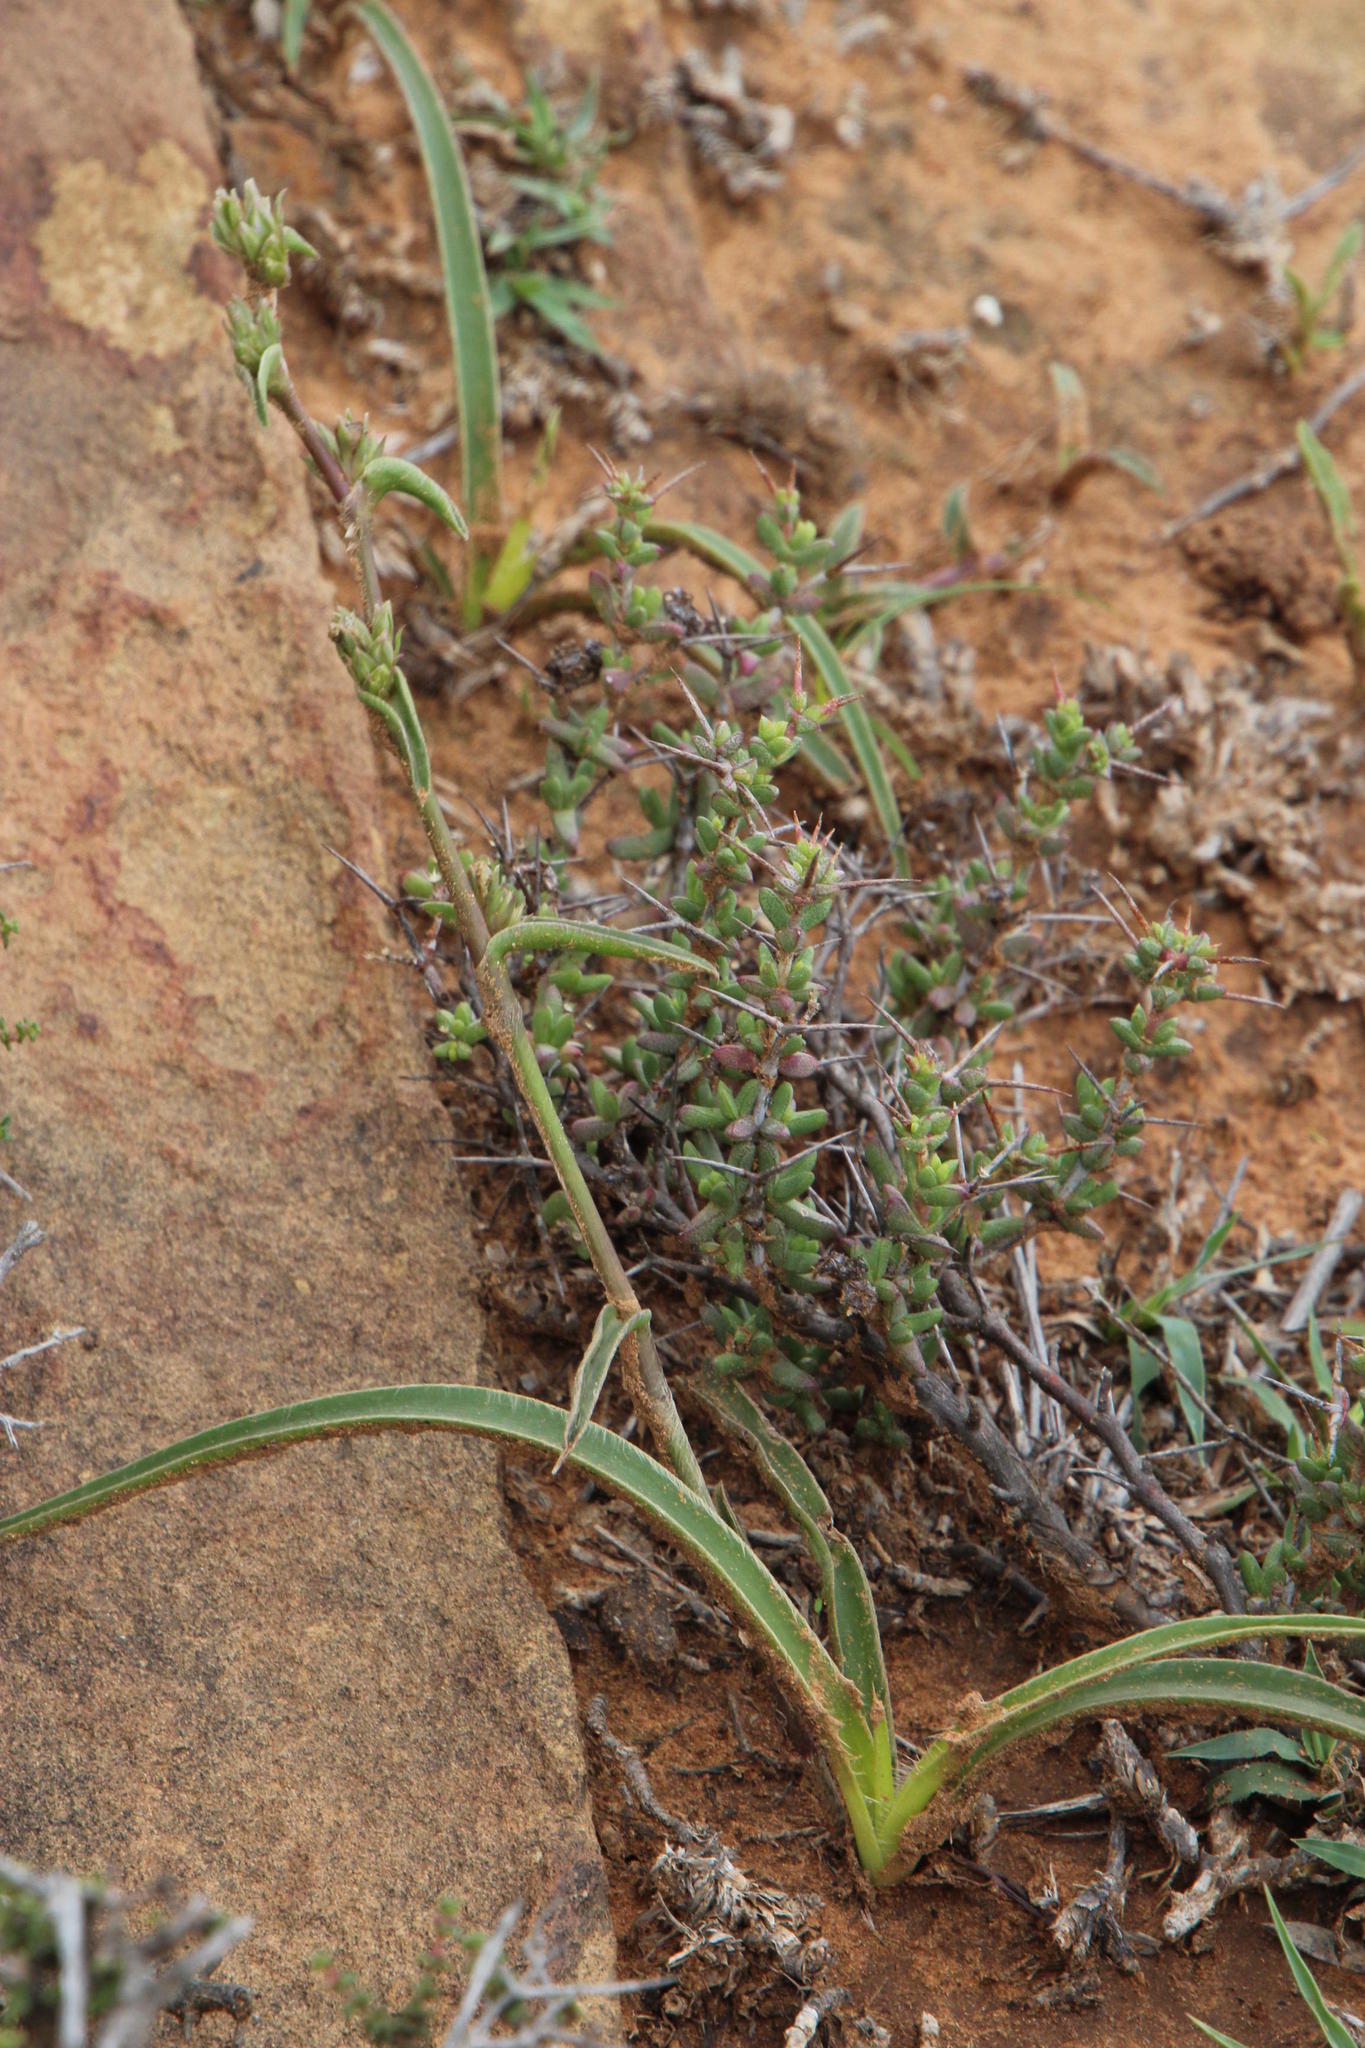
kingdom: Plantae
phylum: Tracheophyta
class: Liliopsida
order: Commelinales
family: Commelinaceae
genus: Cyanotis
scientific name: Cyanotis speciosa
